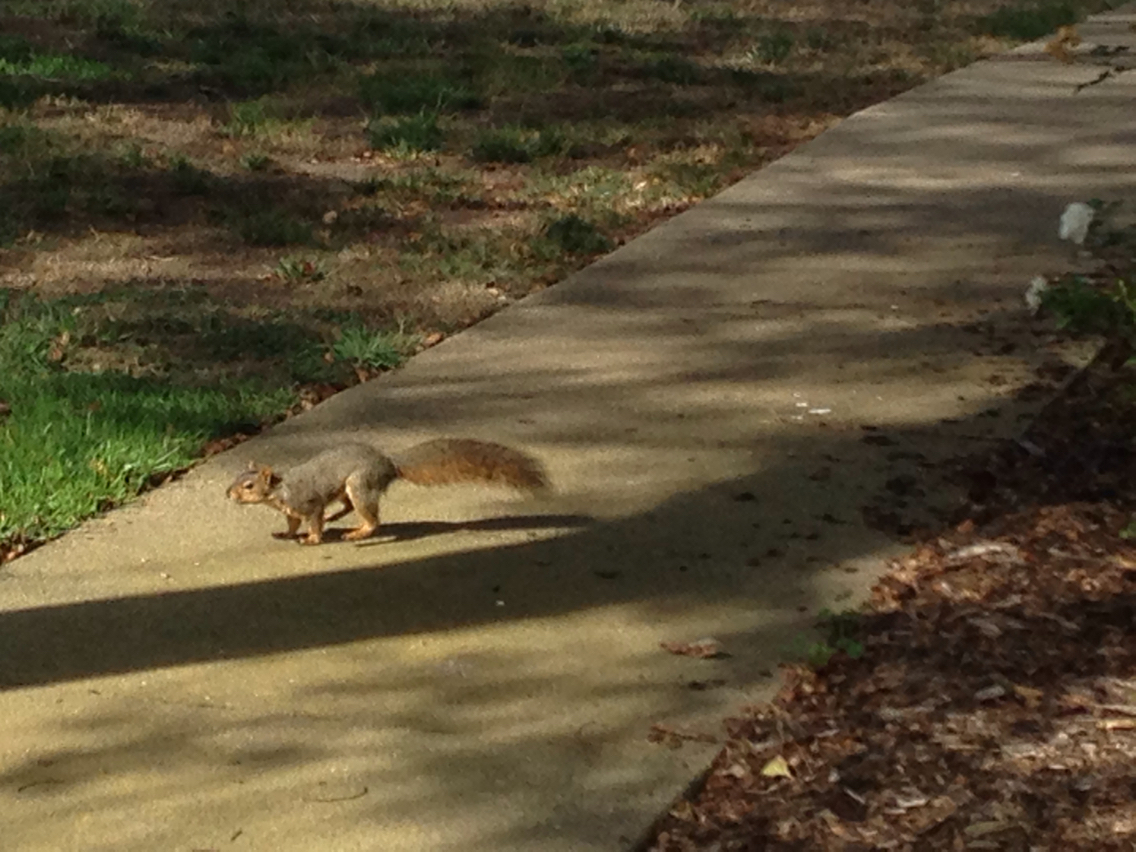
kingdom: Animalia
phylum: Chordata
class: Mammalia
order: Rodentia
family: Sciuridae
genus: Sciurus
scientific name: Sciurus niger
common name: Fox squirrel
